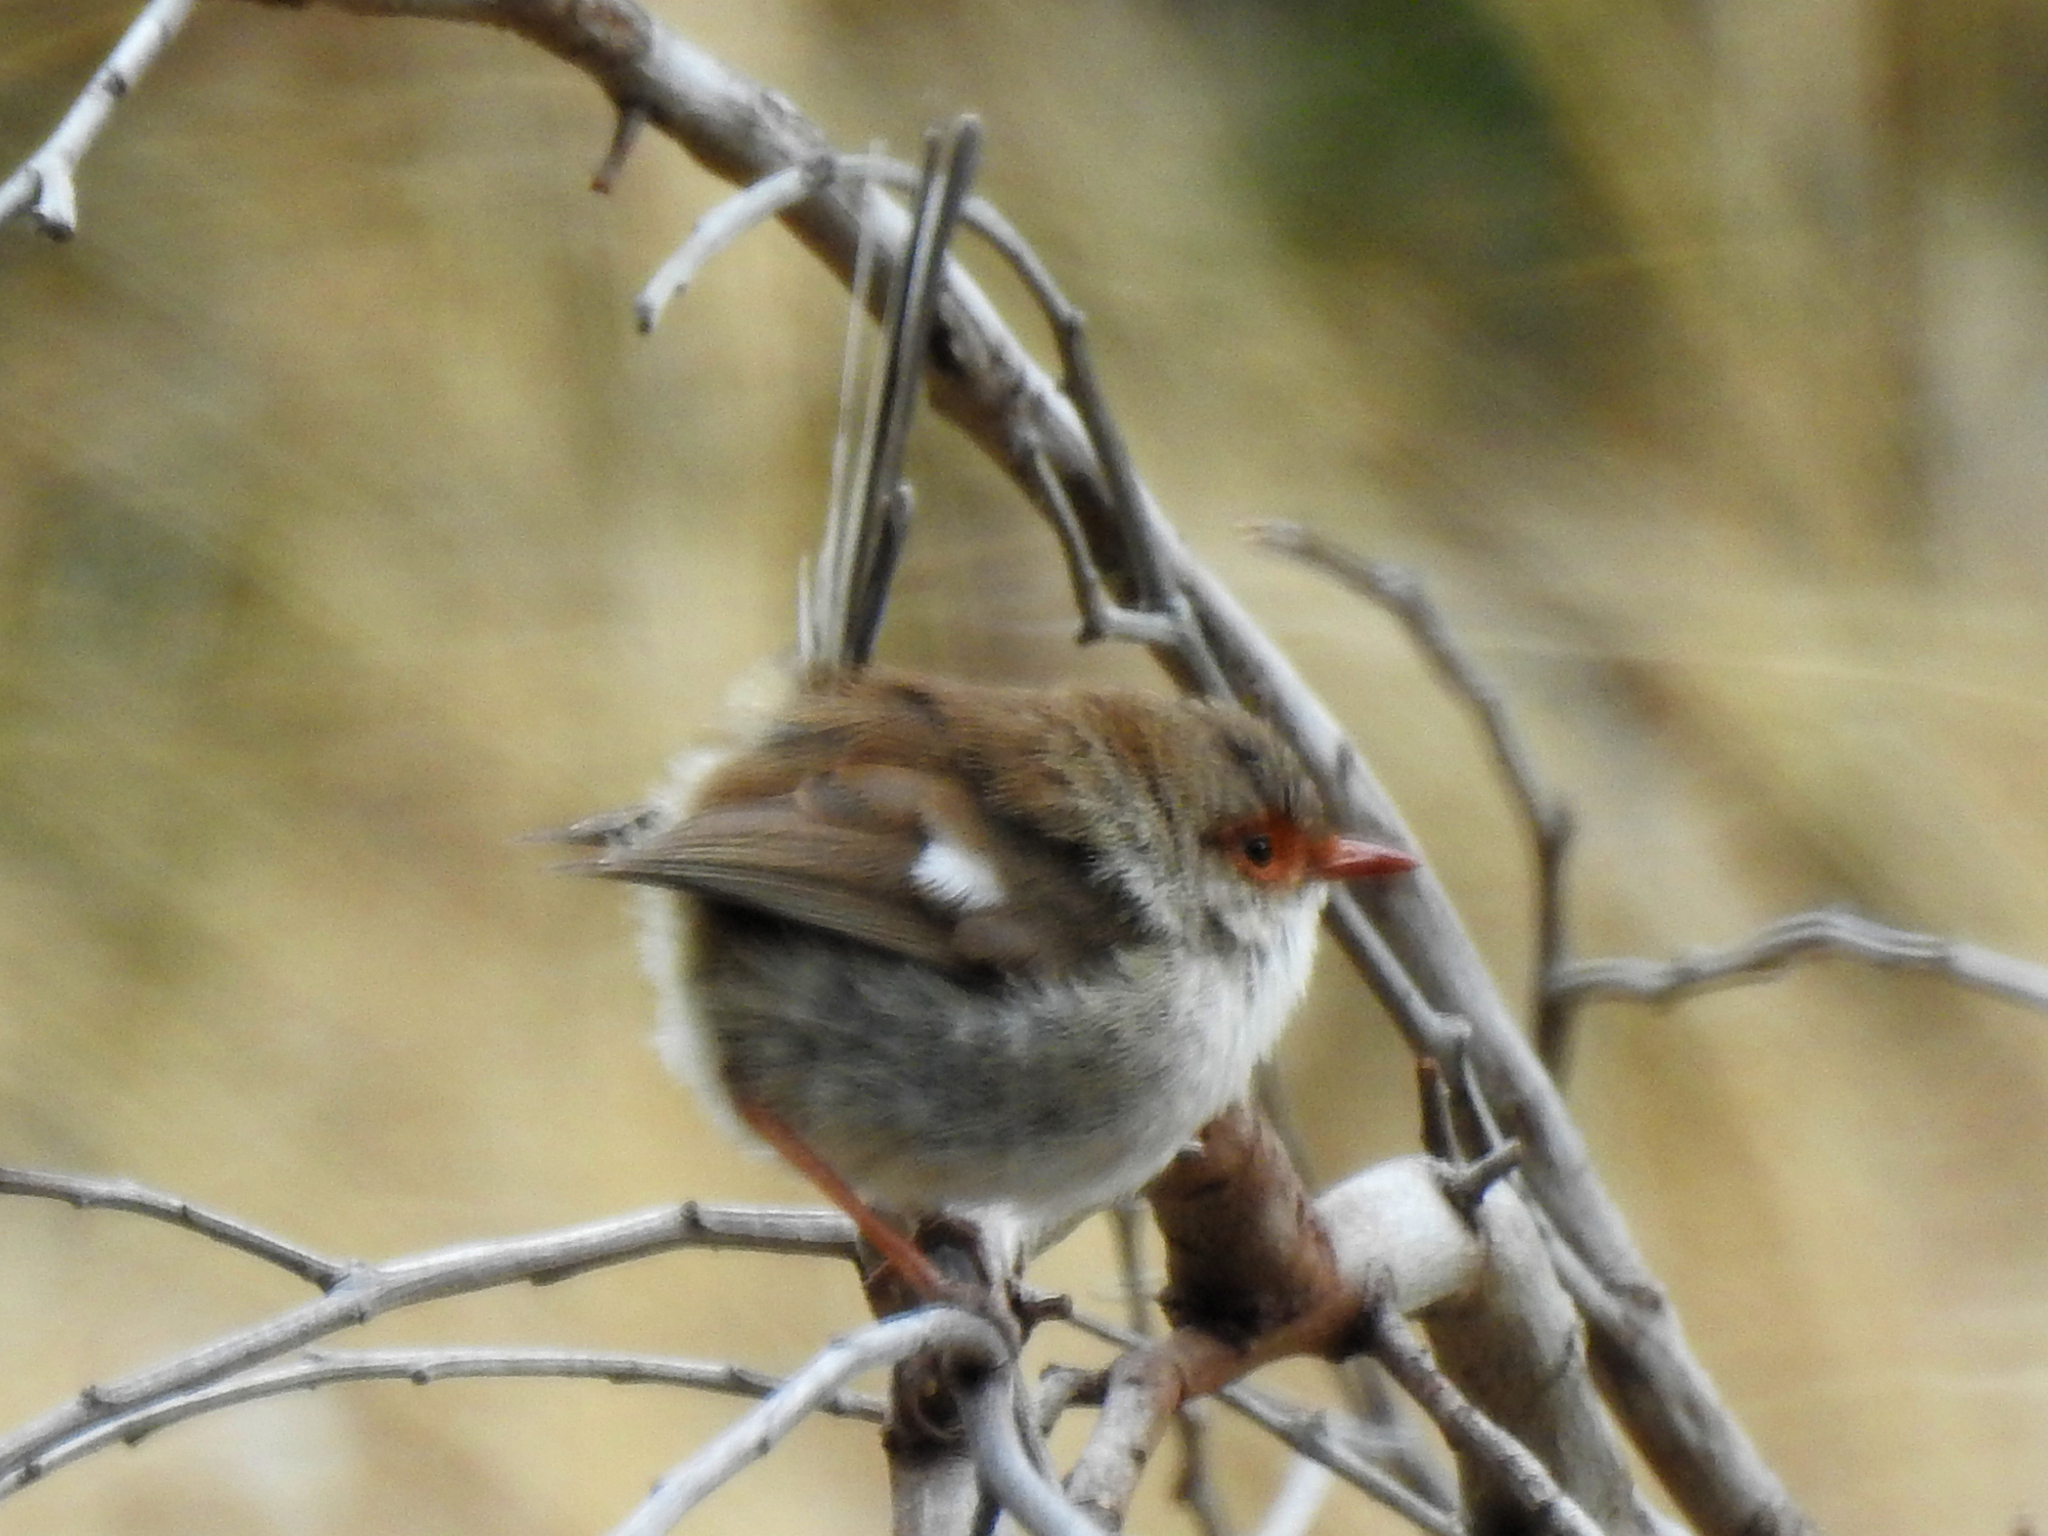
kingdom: Animalia
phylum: Chordata
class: Aves
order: Passeriformes
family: Maluridae
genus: Malurus
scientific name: Malurus cyaneus
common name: Superb fairywren
